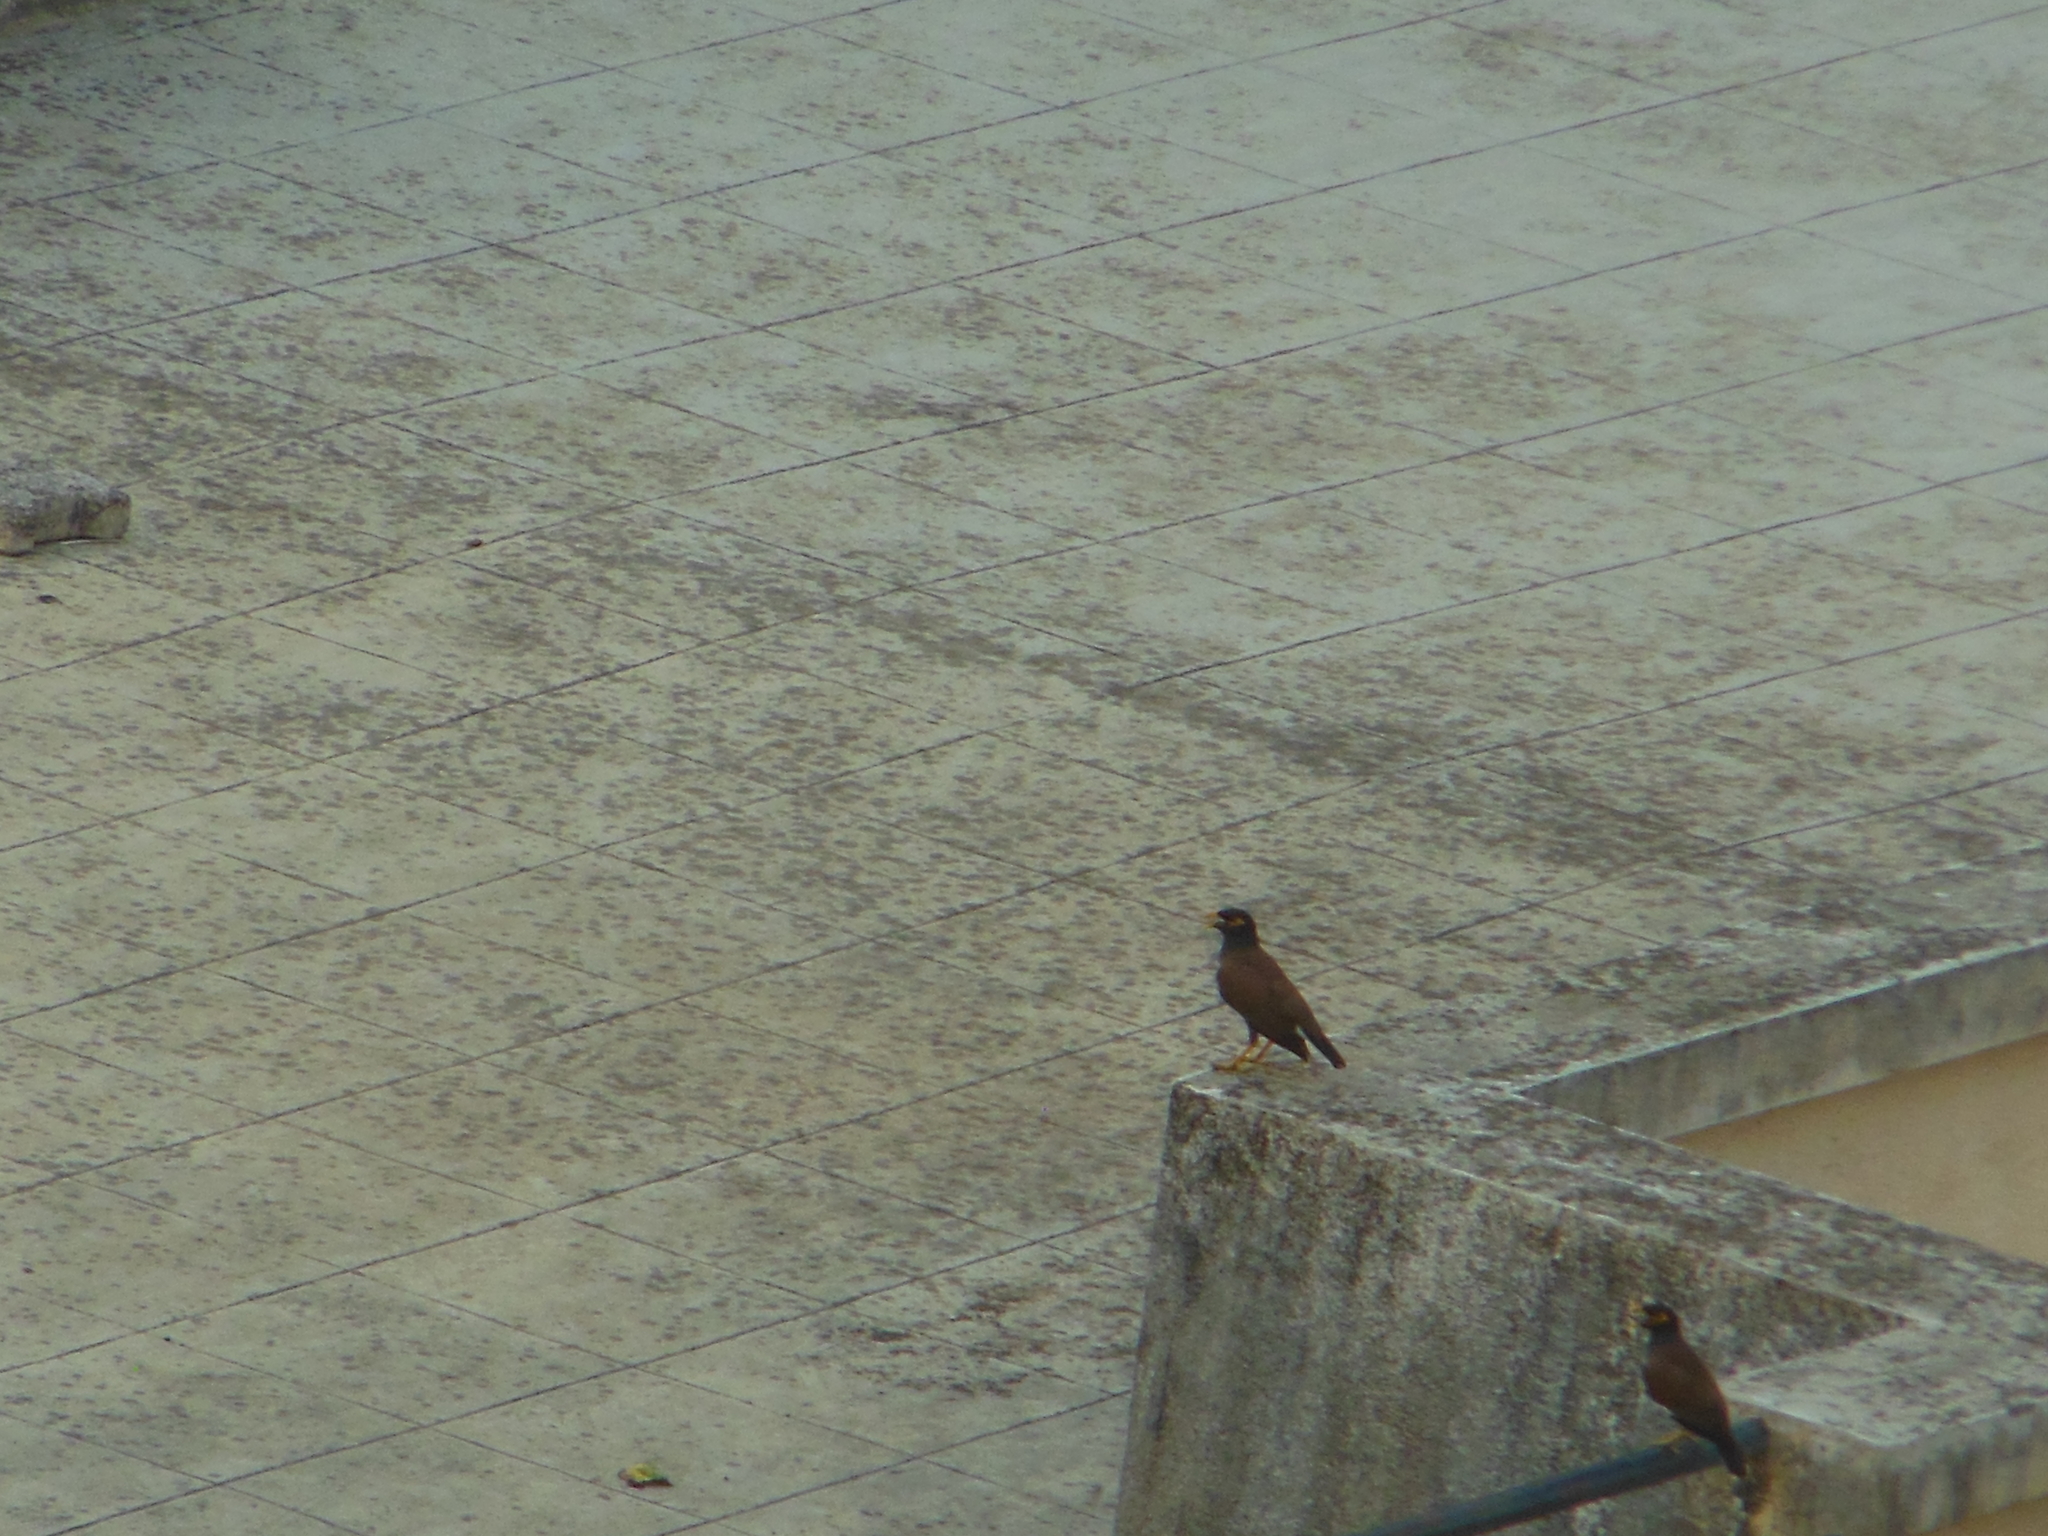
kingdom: Animalia
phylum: Chordata
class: Aves
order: Passeriformes
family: Sturnidae
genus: Acridotheres
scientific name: Acridotheres tristis
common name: Common myna
